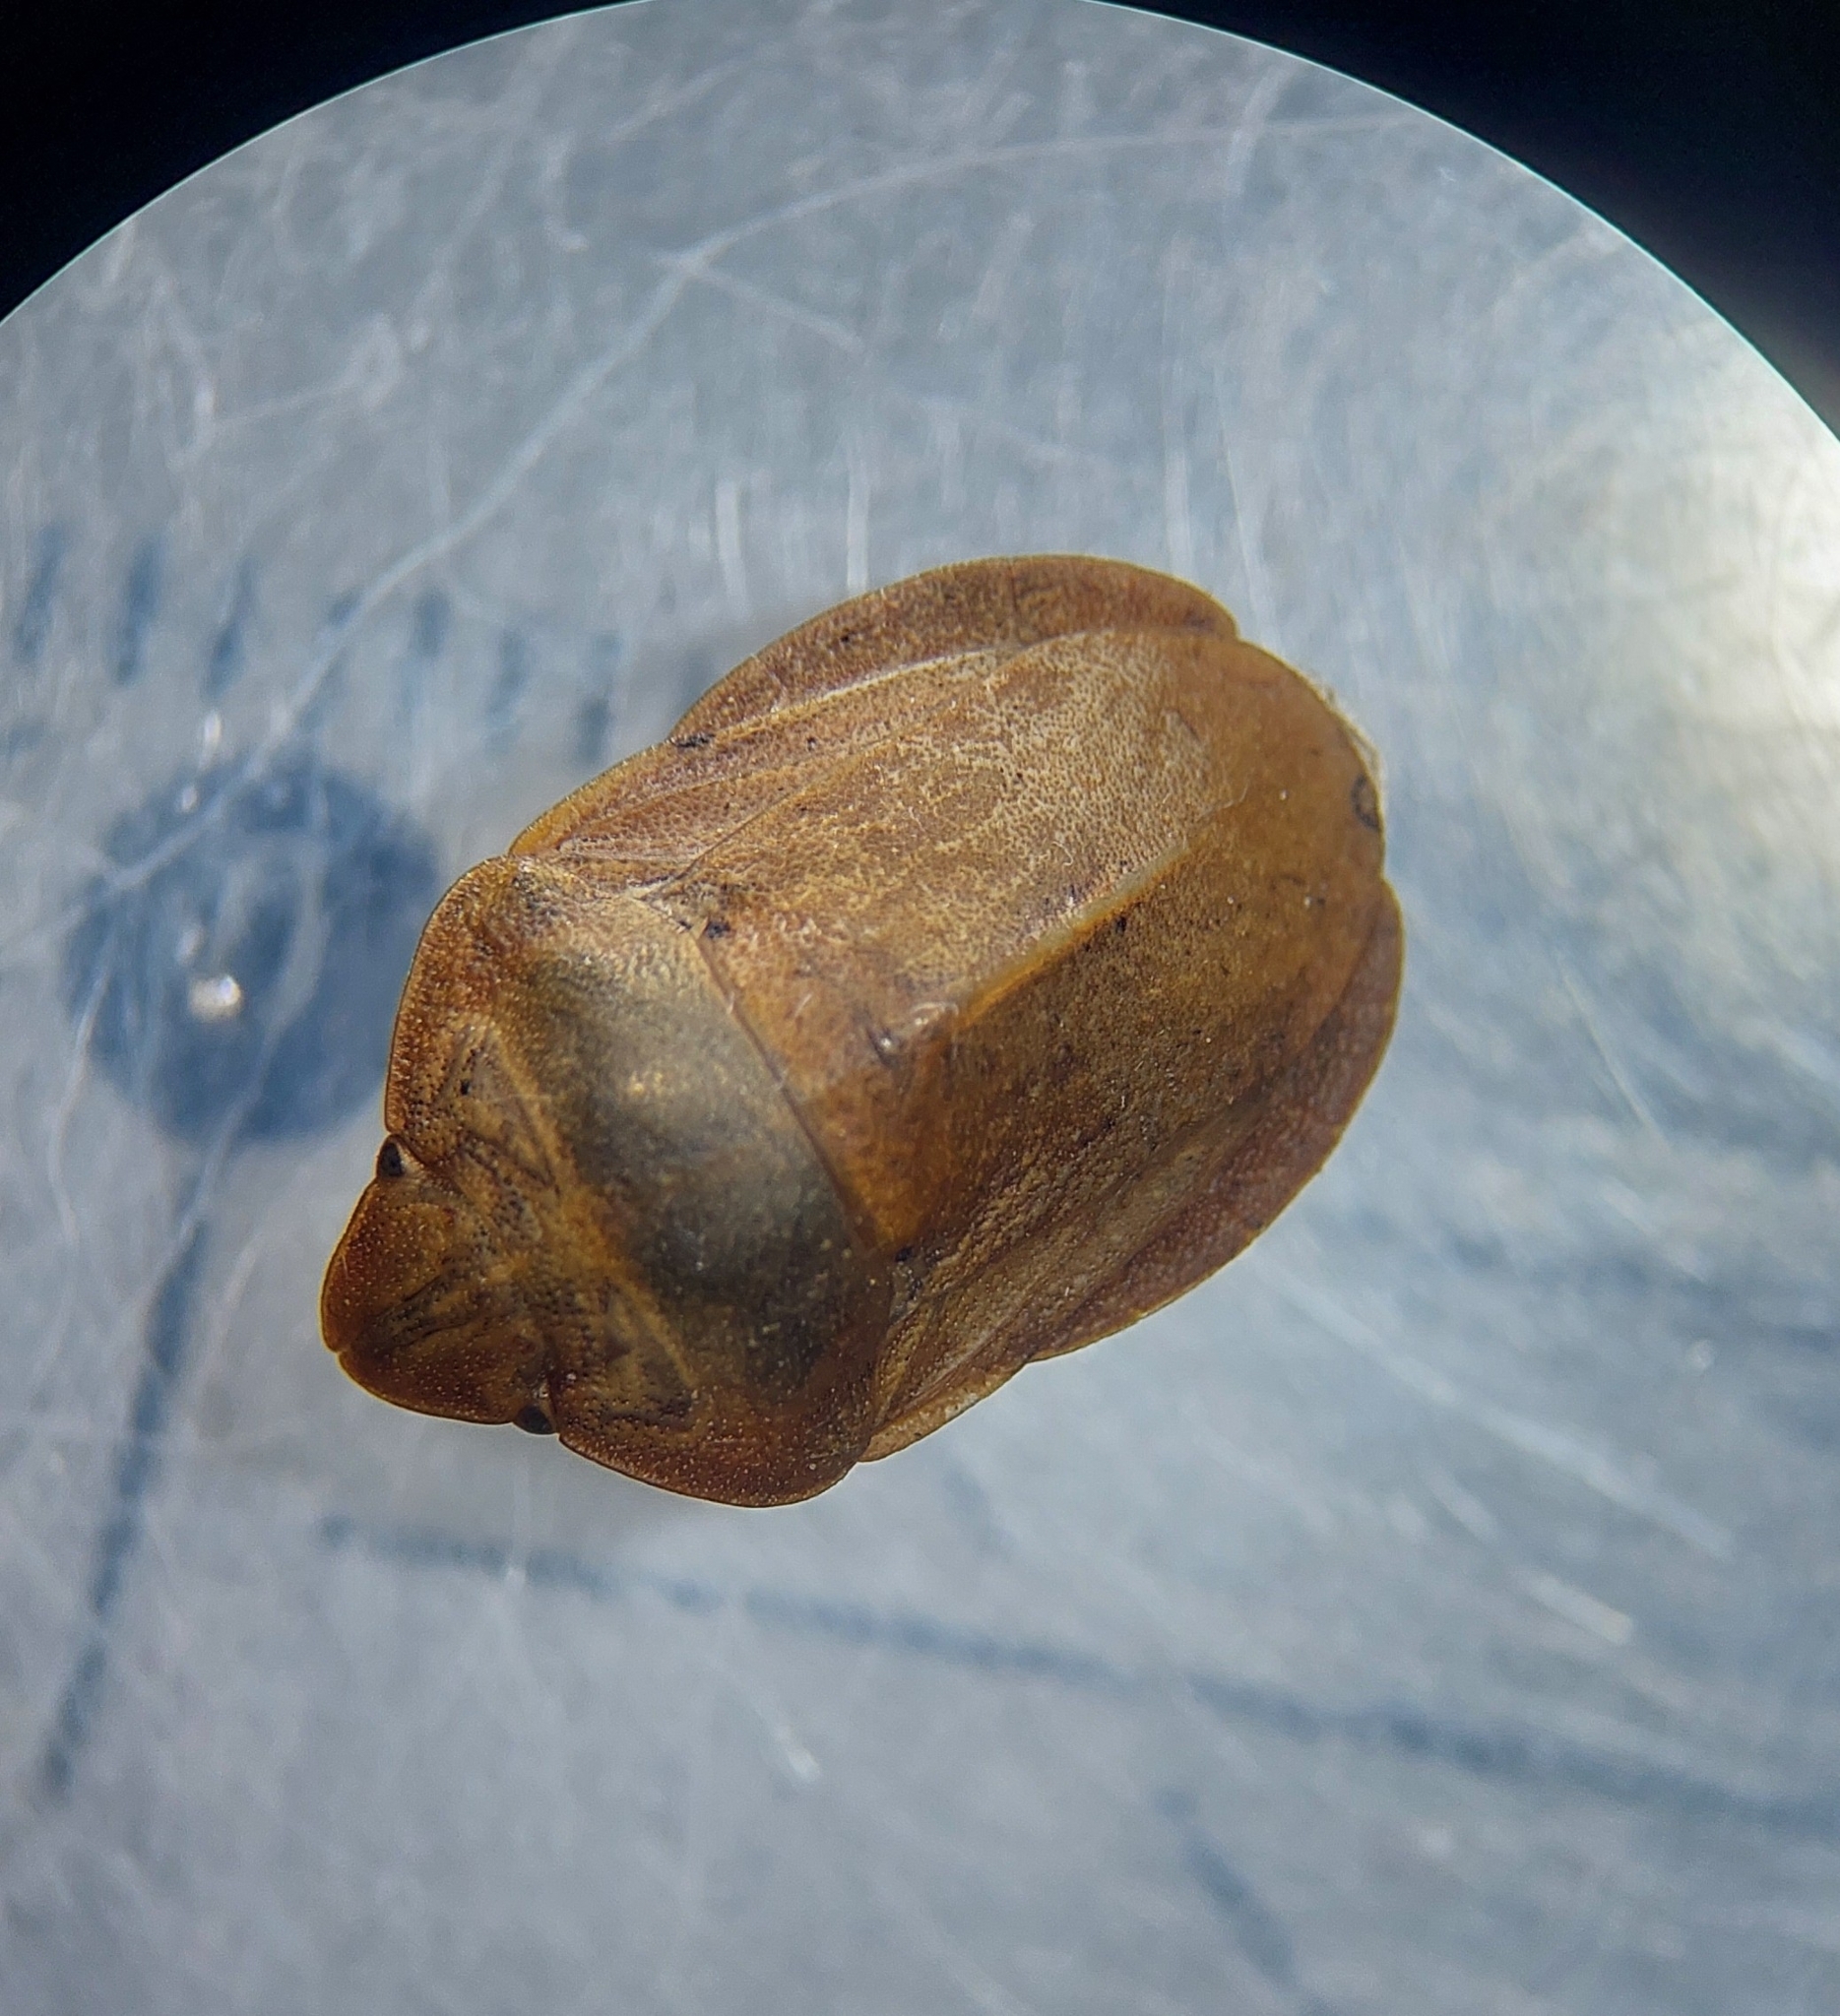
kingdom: Animalia
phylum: Arthropoda
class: Insecta
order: Hemiptera
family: Scutelleridae
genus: Eurygaster
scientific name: Eurygaster austriaca
